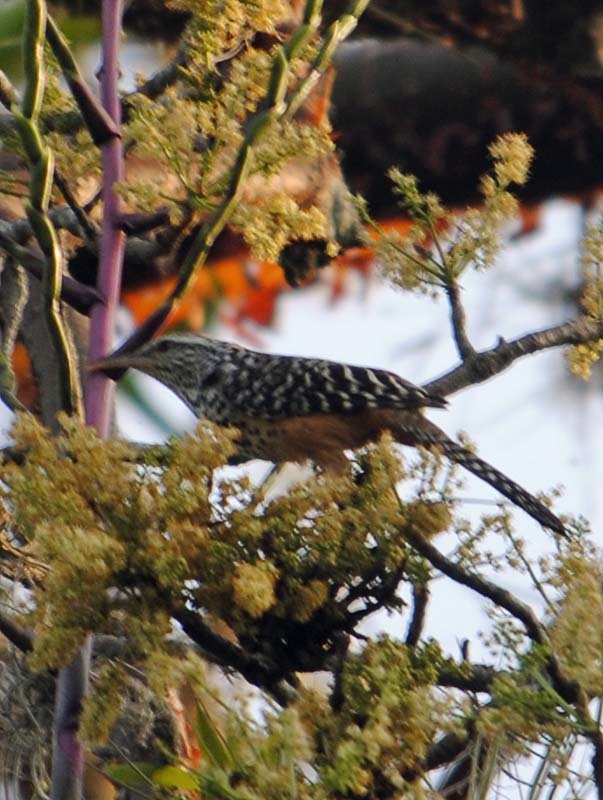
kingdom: Animalia
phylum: Chordata
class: Aves
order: Passeriformes
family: Troglodytidae
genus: Campylorhynchus
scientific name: Campylorhynchus zonatus
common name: Band-backed wren
